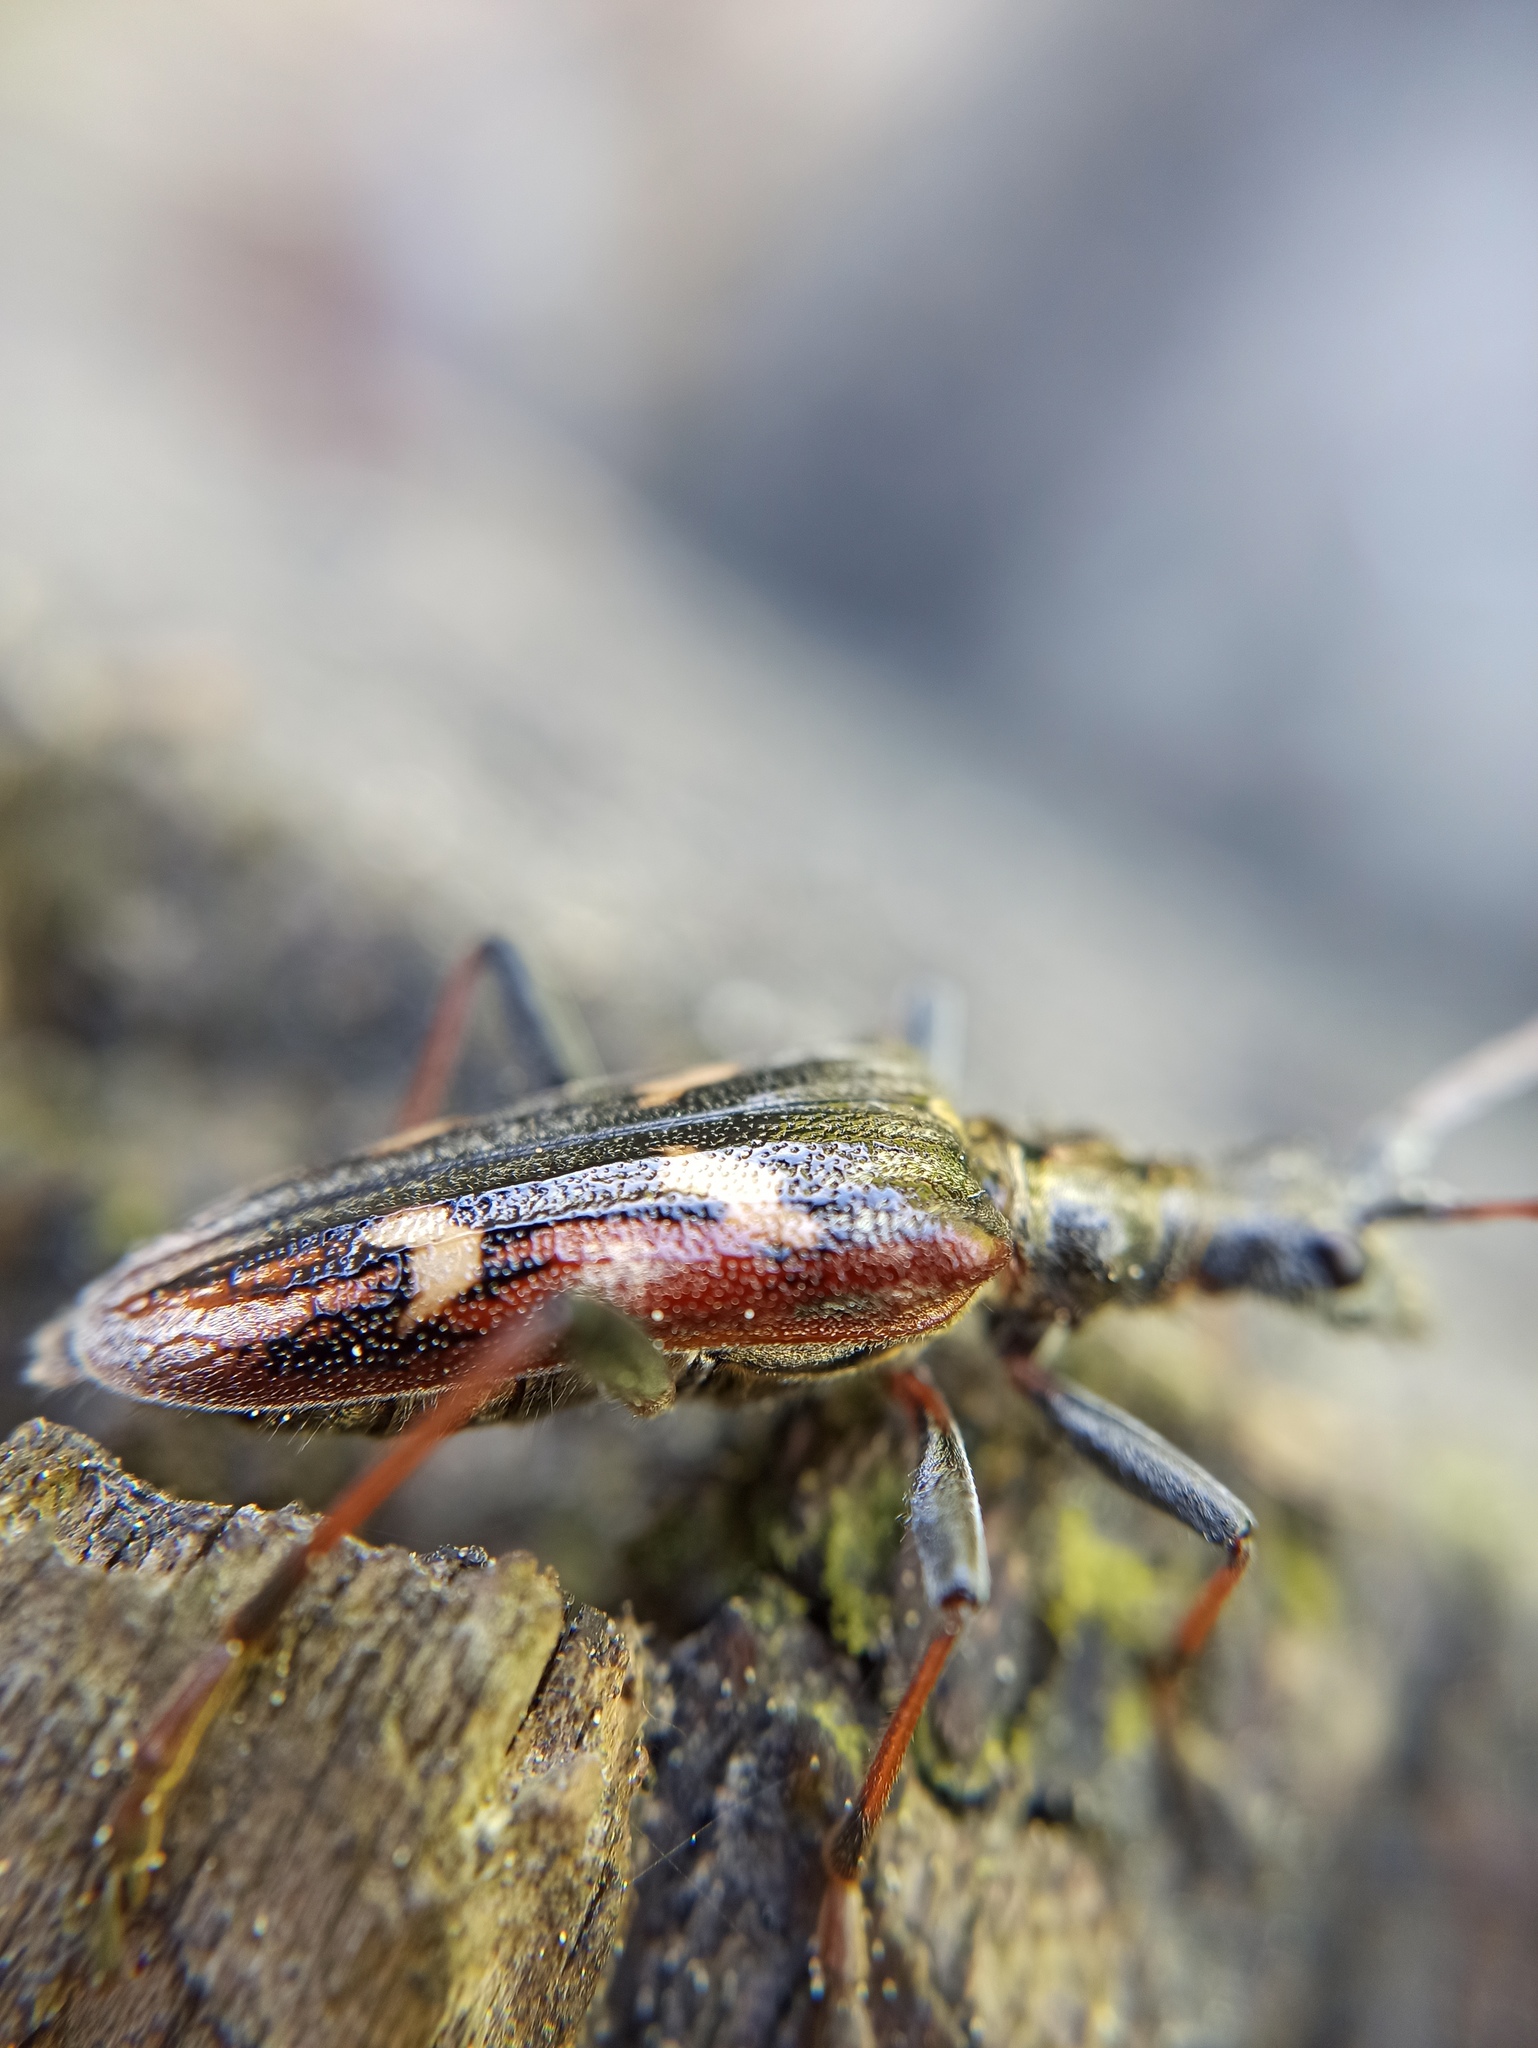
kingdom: Animalia
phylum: Arthropoda
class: Insecta
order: Coleoptera
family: Cerambycidae
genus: Rhagium
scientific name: Rhagium bifasciatum
